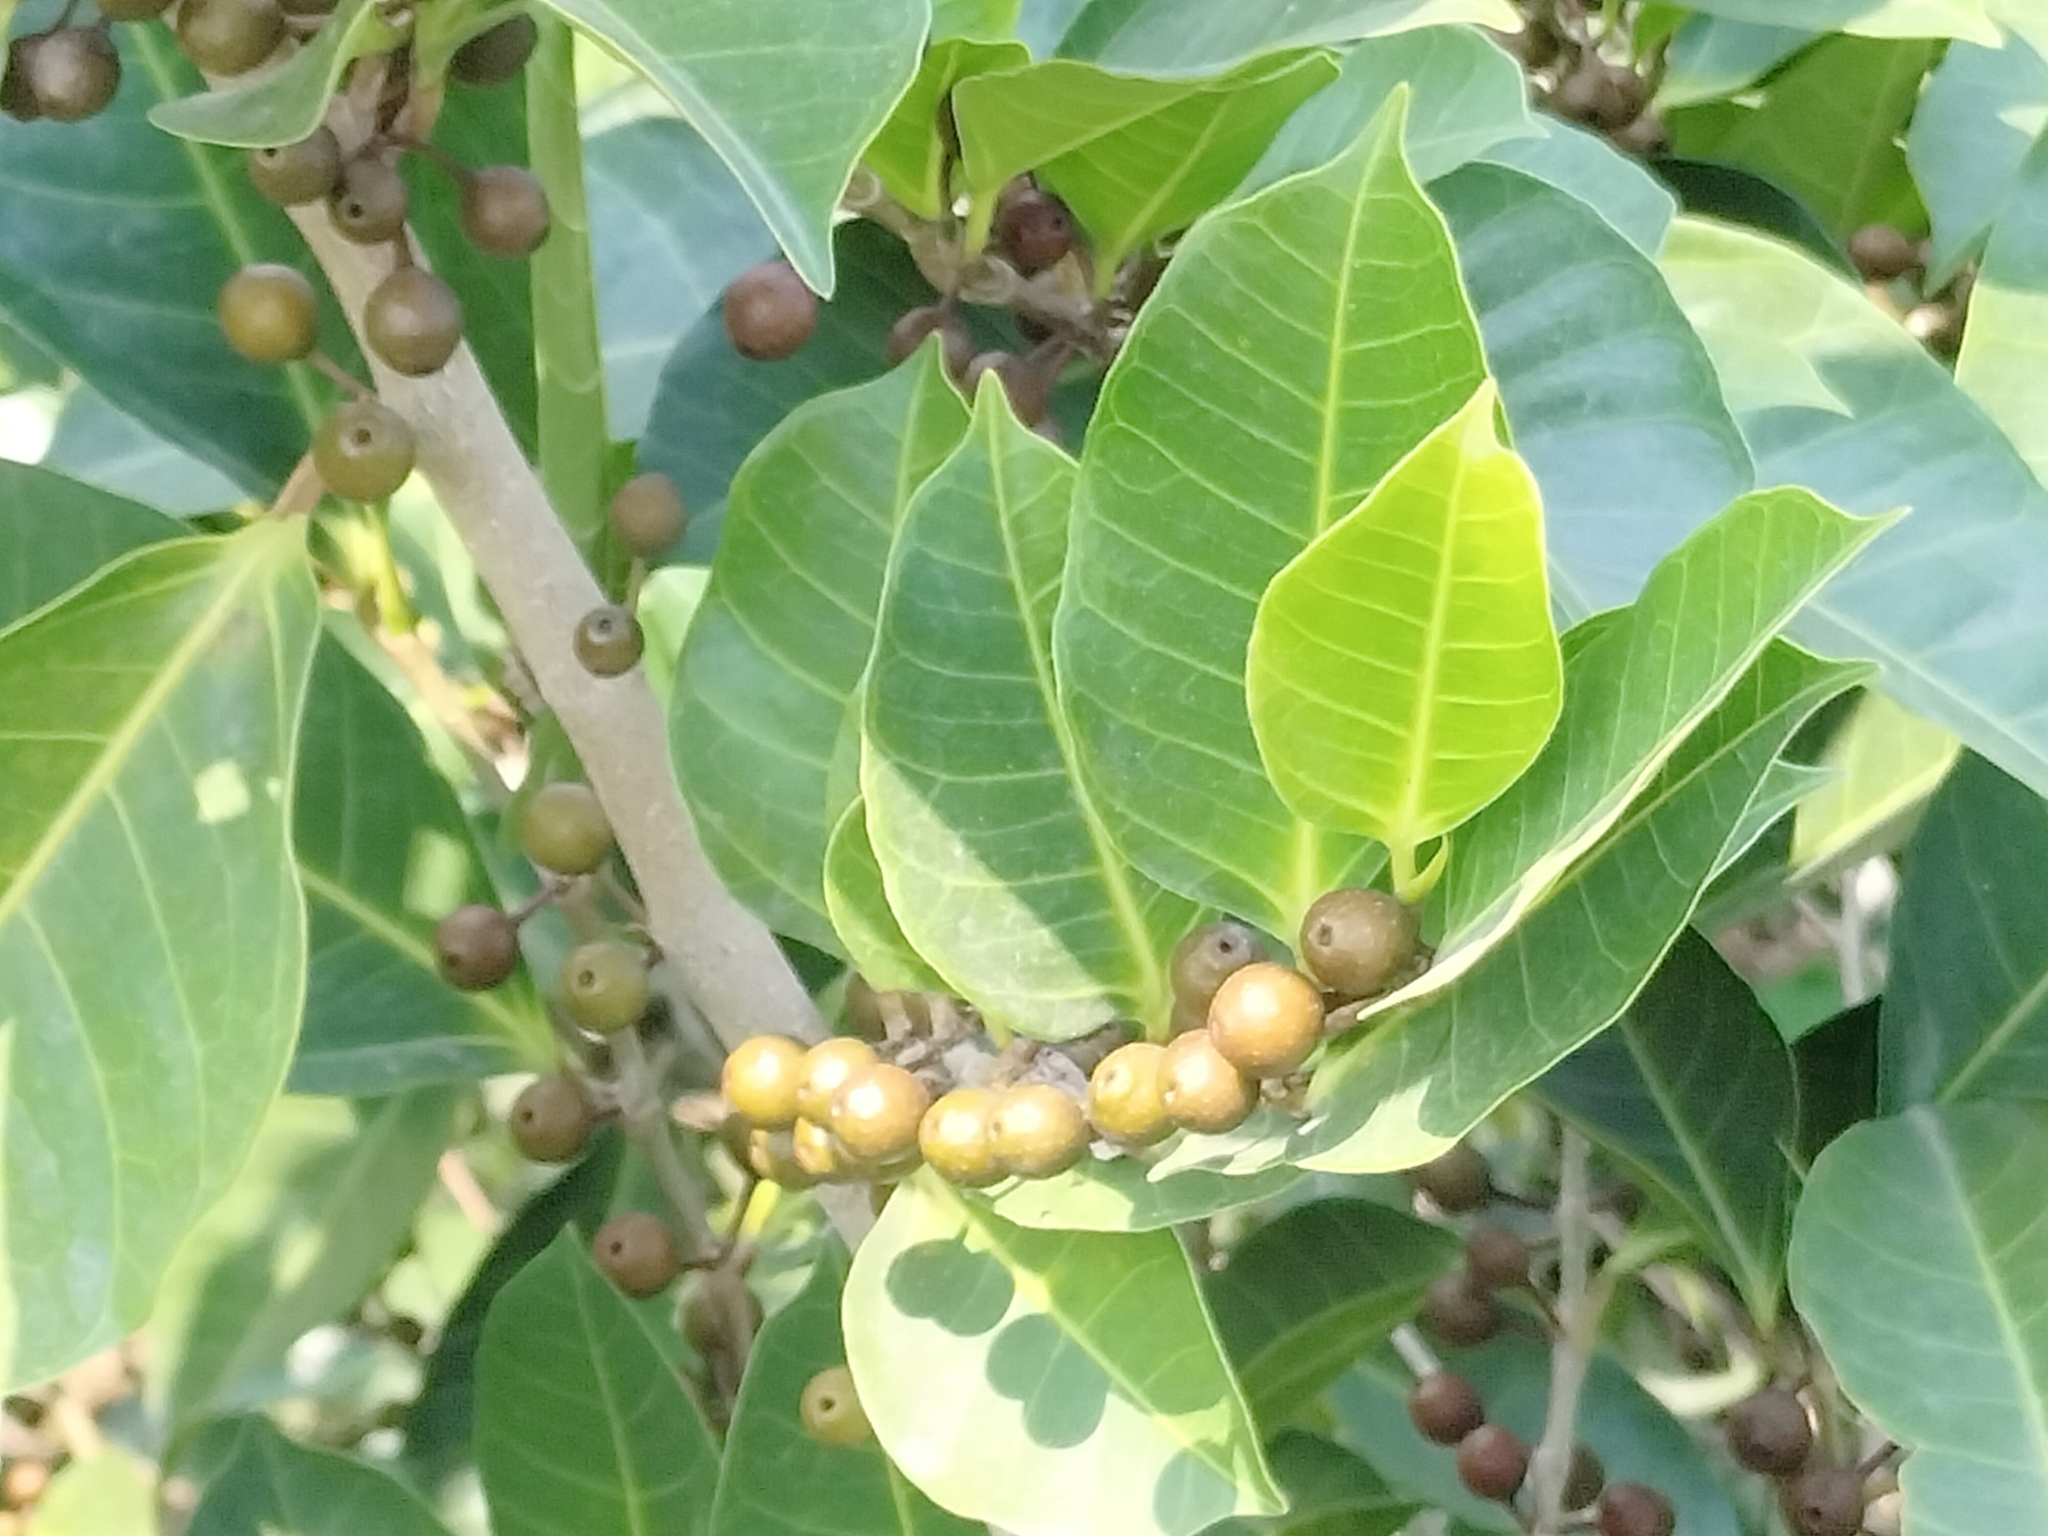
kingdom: Plantae
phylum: Tracheophyta
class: Magnoliopsida
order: Rosales
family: Moraceae
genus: Ficus
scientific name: Ficus virgata
